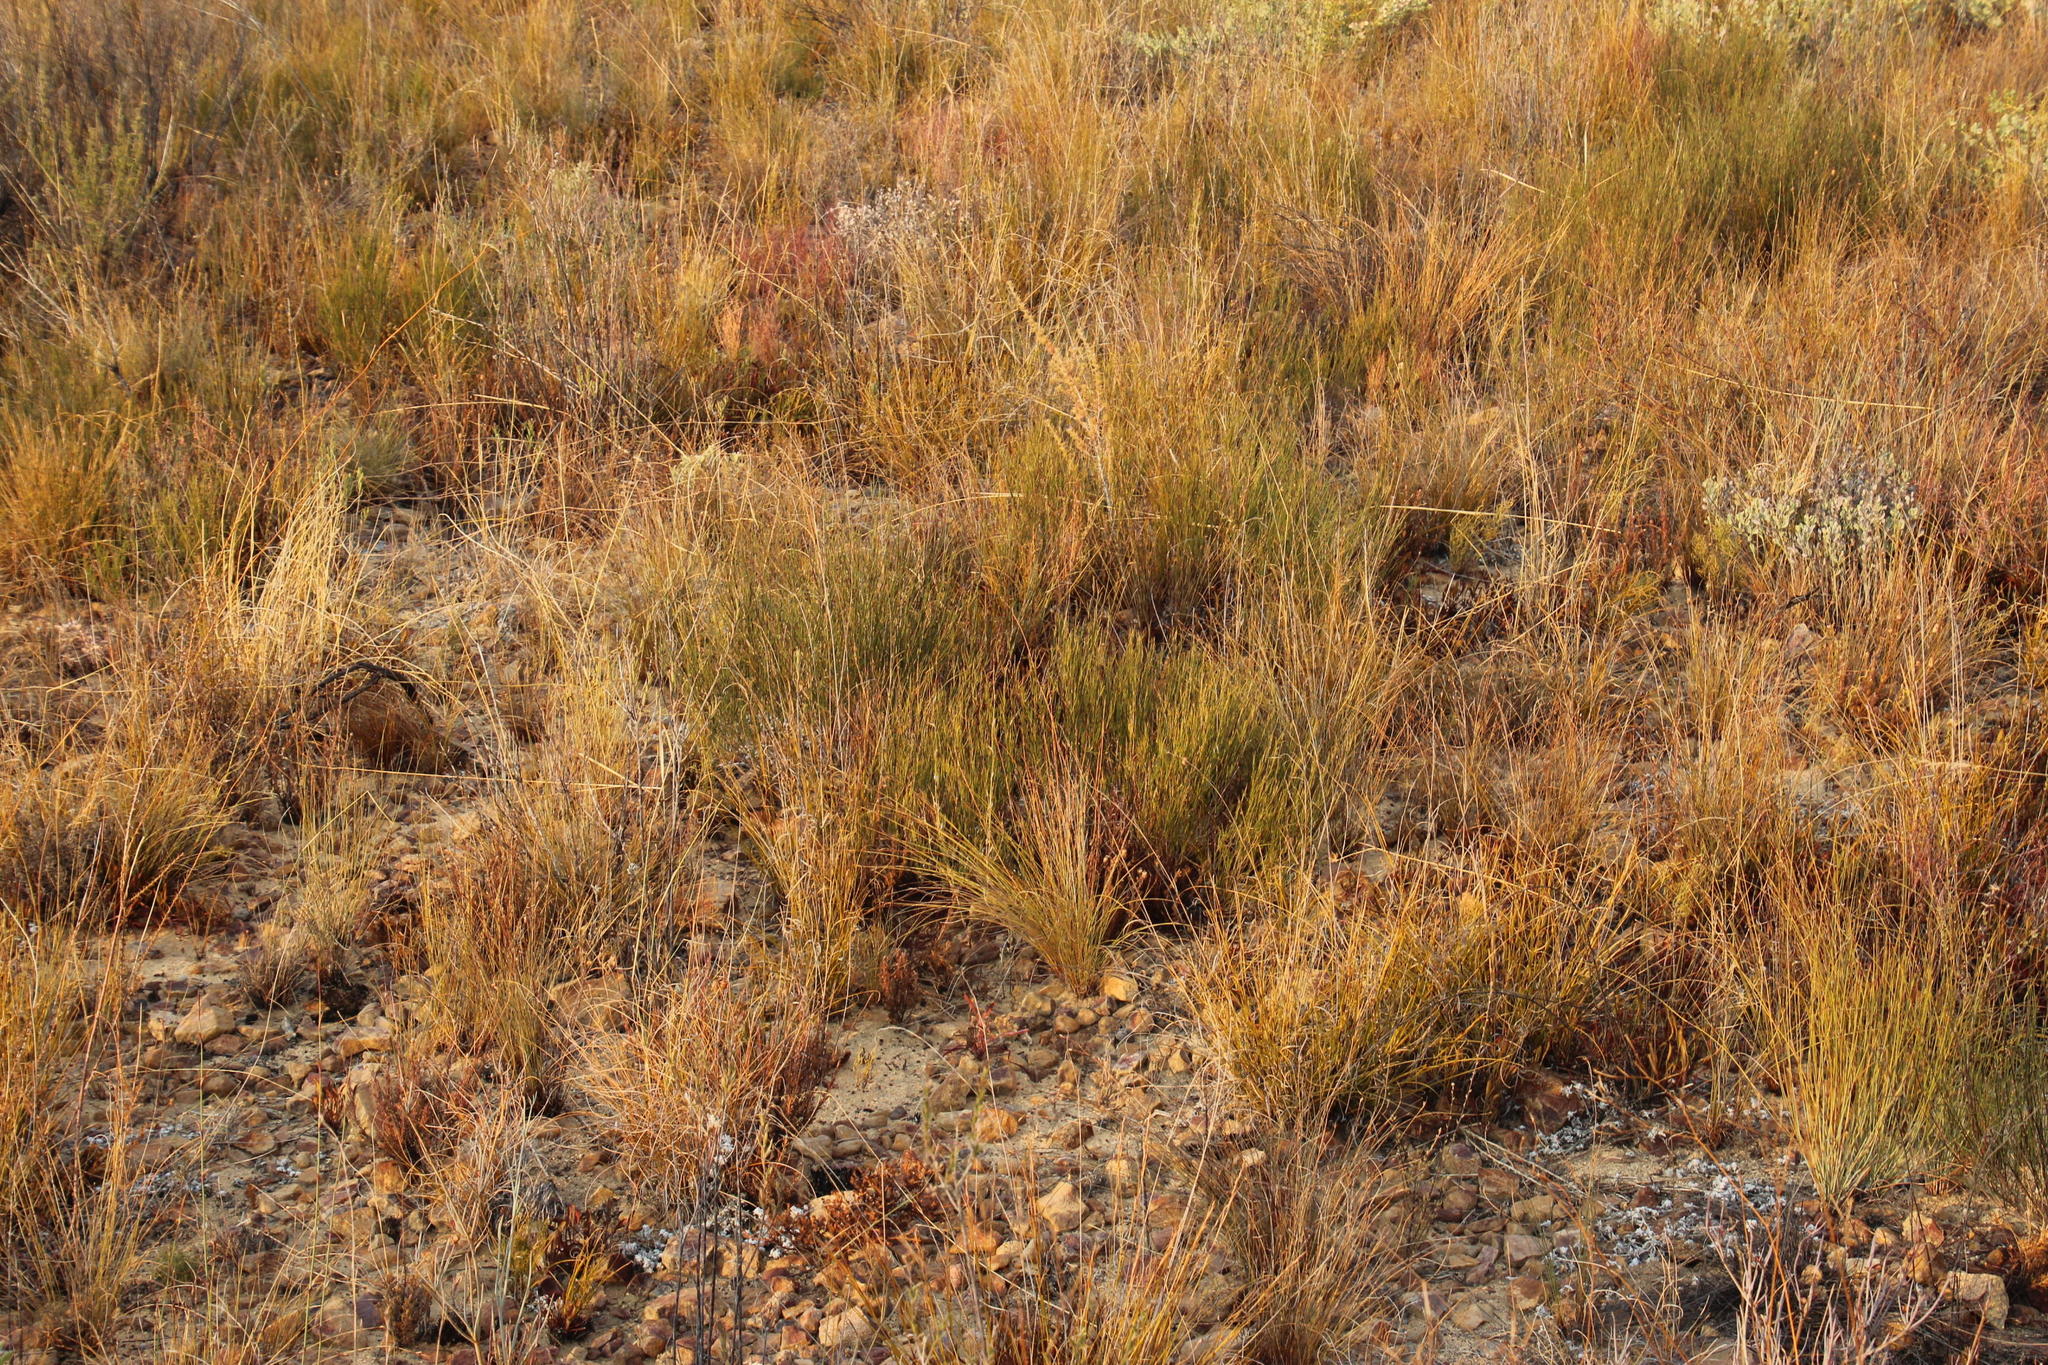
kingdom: Plantae
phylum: Tracheophyta
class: Magnoliopsida
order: Fabales
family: Fabaceae
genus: Aspalathus
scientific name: Aspalathus linearis
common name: Rooibos-tea
